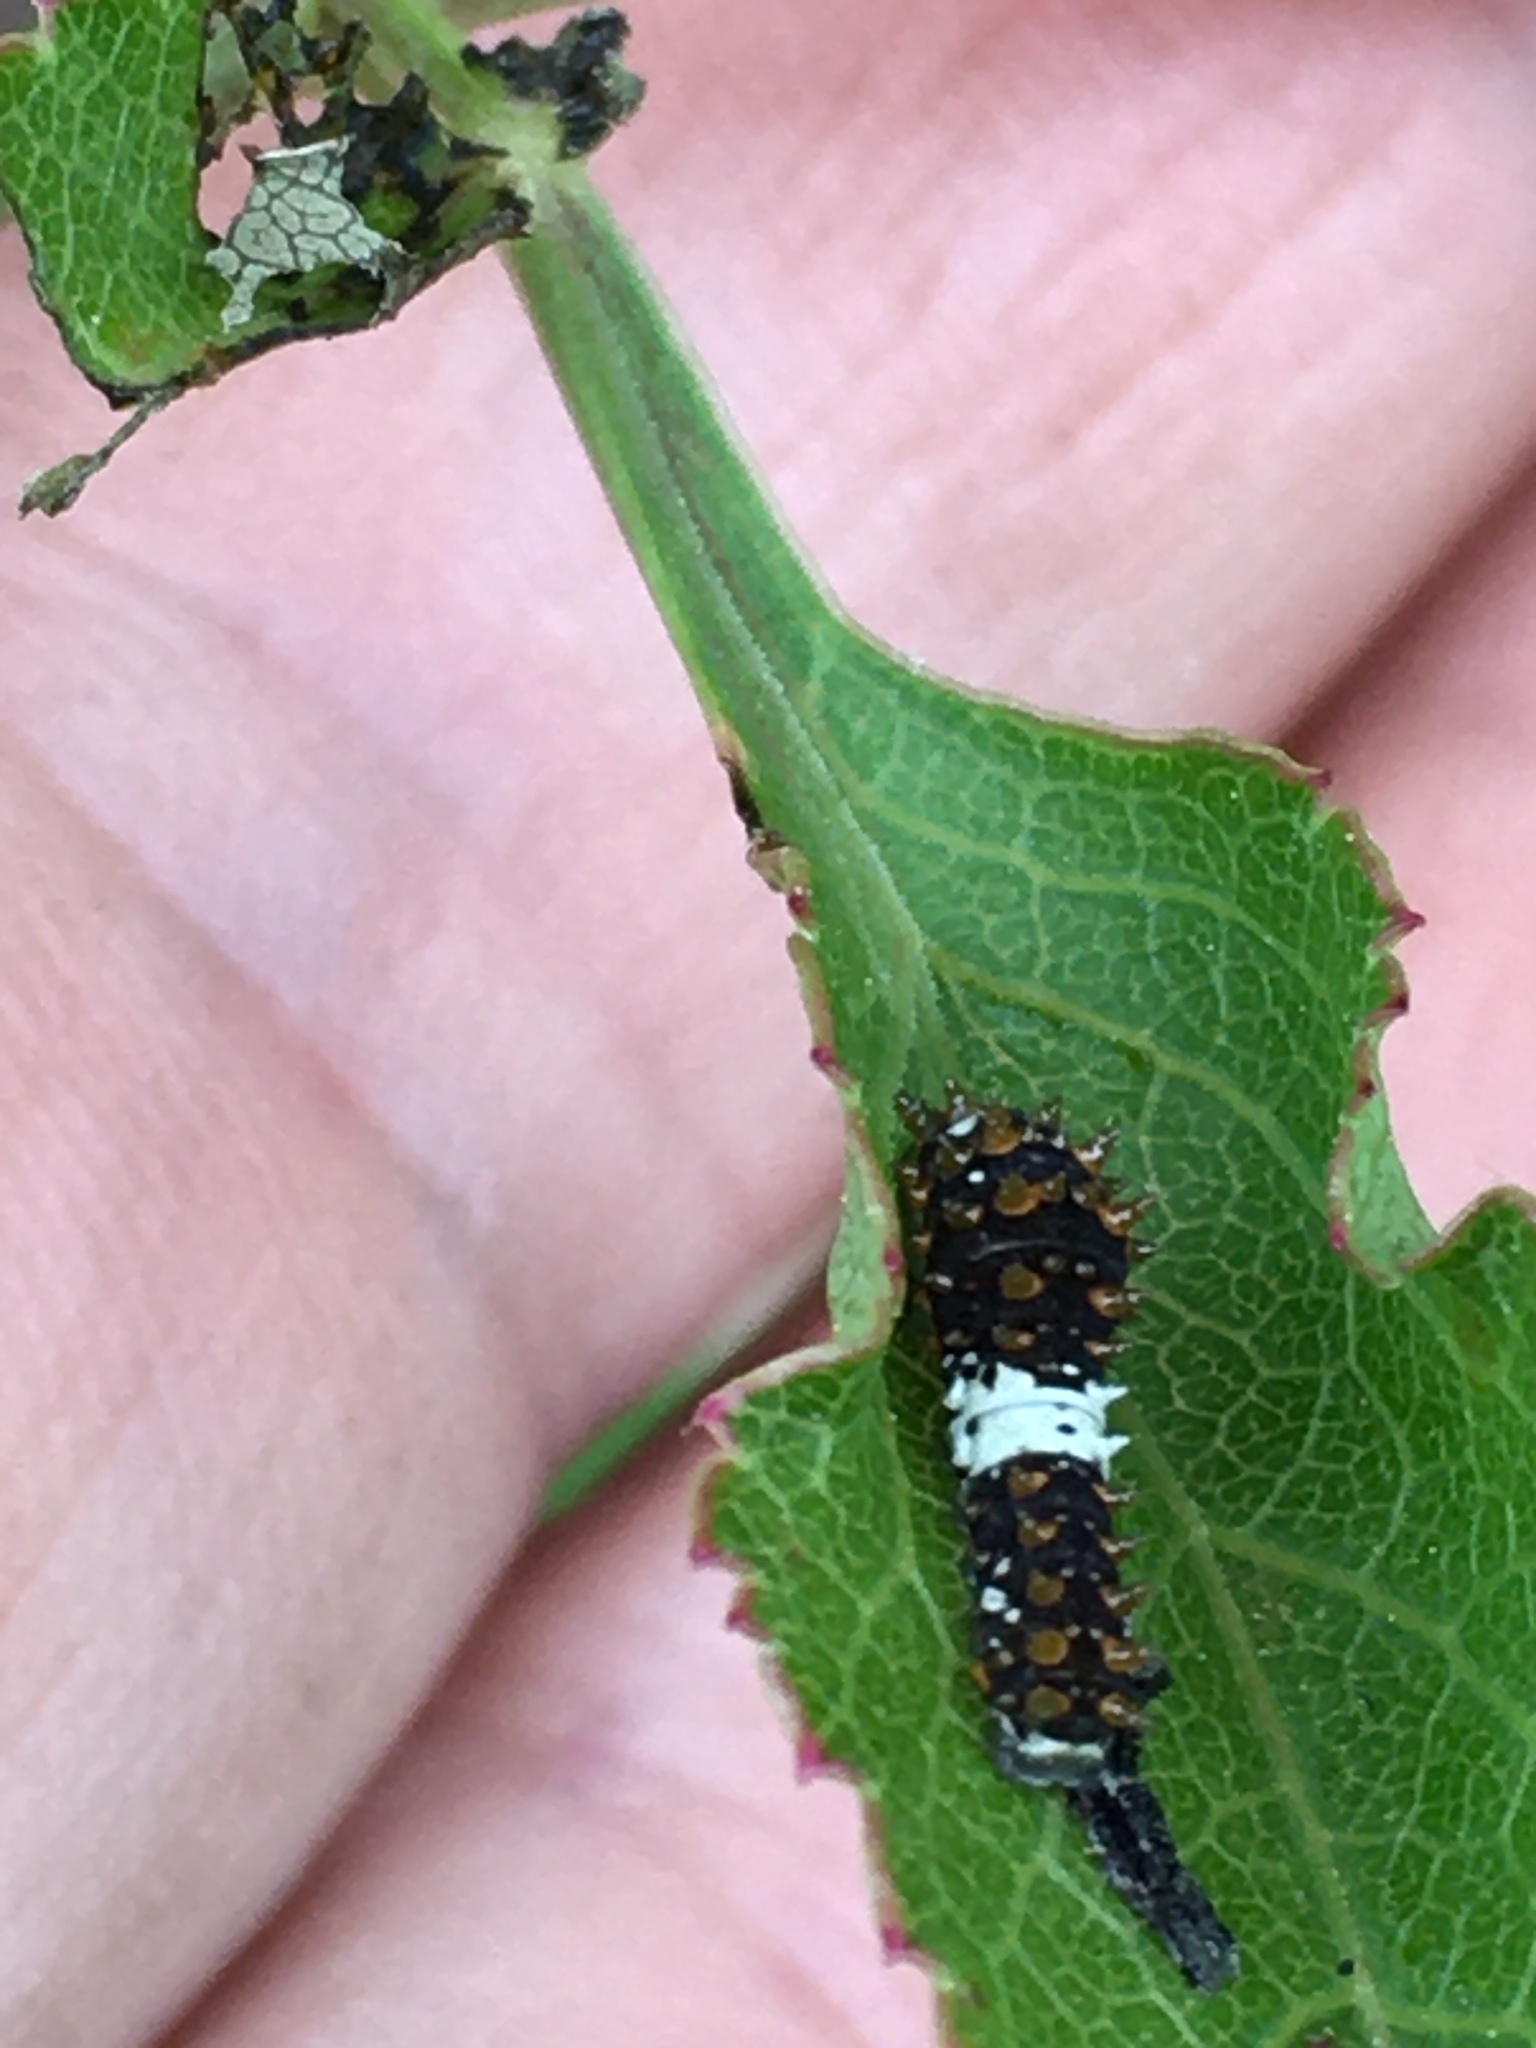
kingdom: Animalia
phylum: Arthropoda
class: Insecta
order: Lepidoptera
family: Papilionidae
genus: Papilio
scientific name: Papilio polyxenes
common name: Black swallowtail
